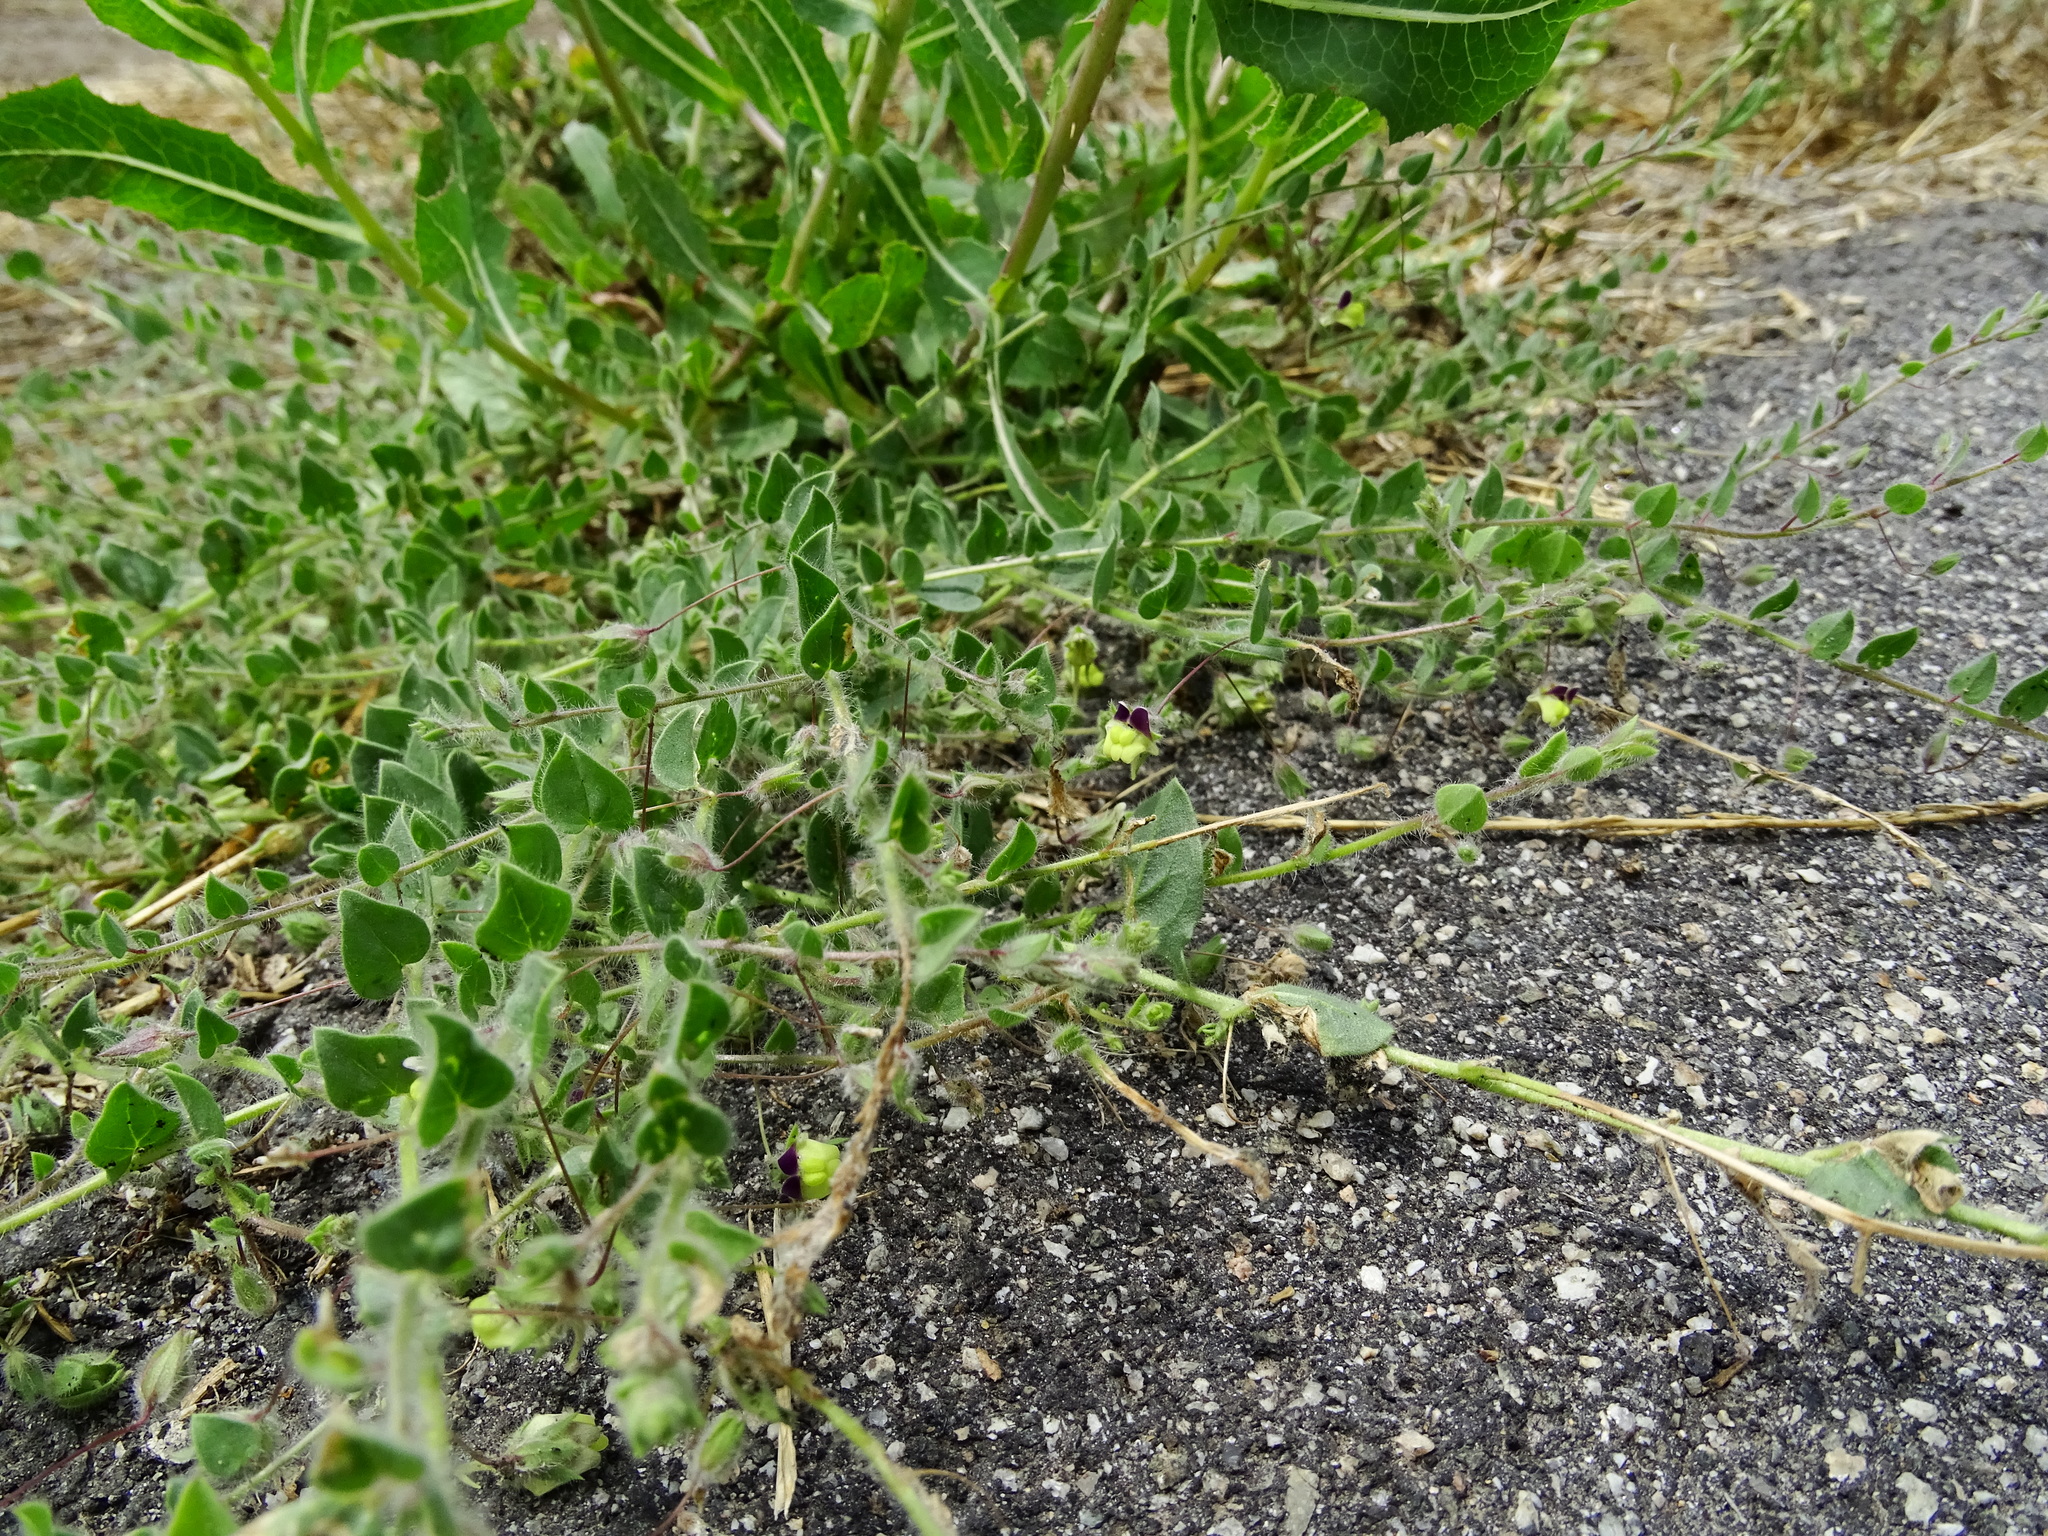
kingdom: Plantae
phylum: Tracheophyta
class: Magnoliopsida
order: Lamiales
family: Plantaginaceae
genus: Kickxia
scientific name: Kickxia elatine
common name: Sharp-leaved fluellen
